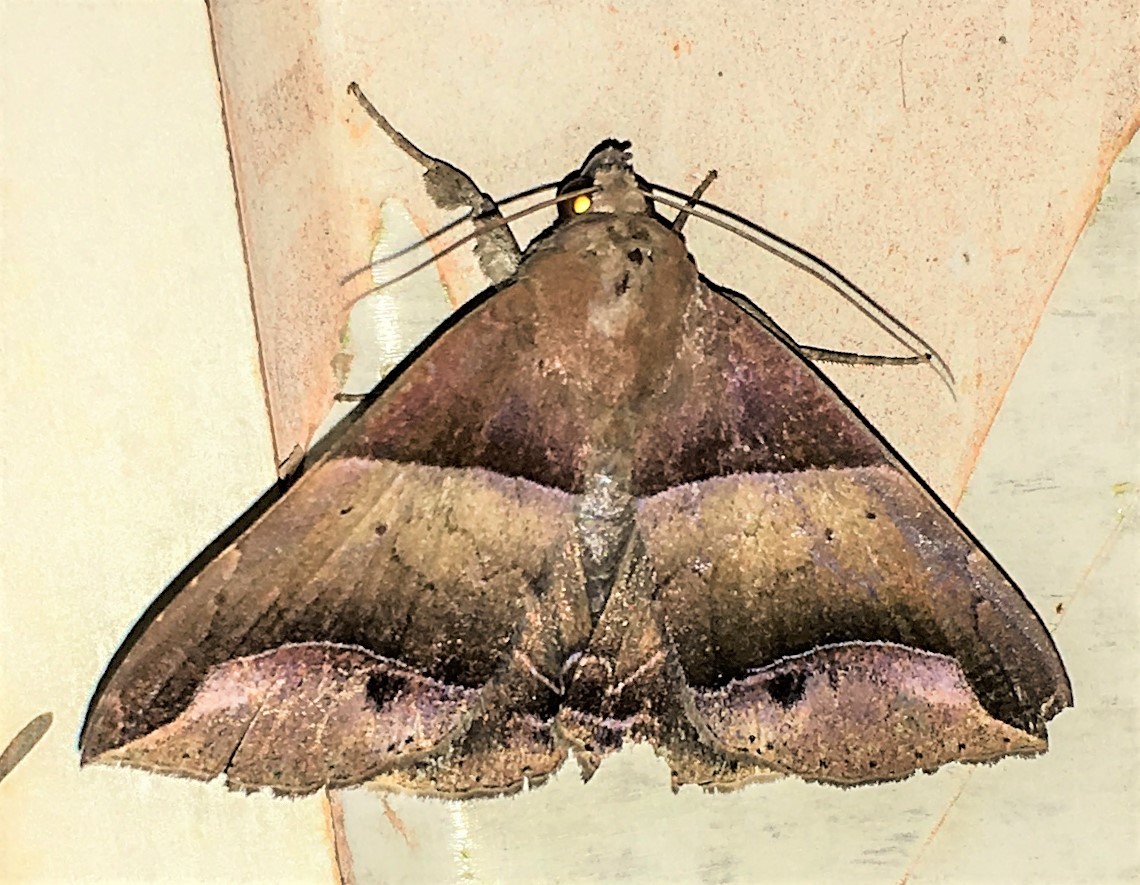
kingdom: Animalia
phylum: Arthropoda
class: Insecta
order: Lepidoptera
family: Erebidae
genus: Parachaea
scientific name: Parachaea macaria
